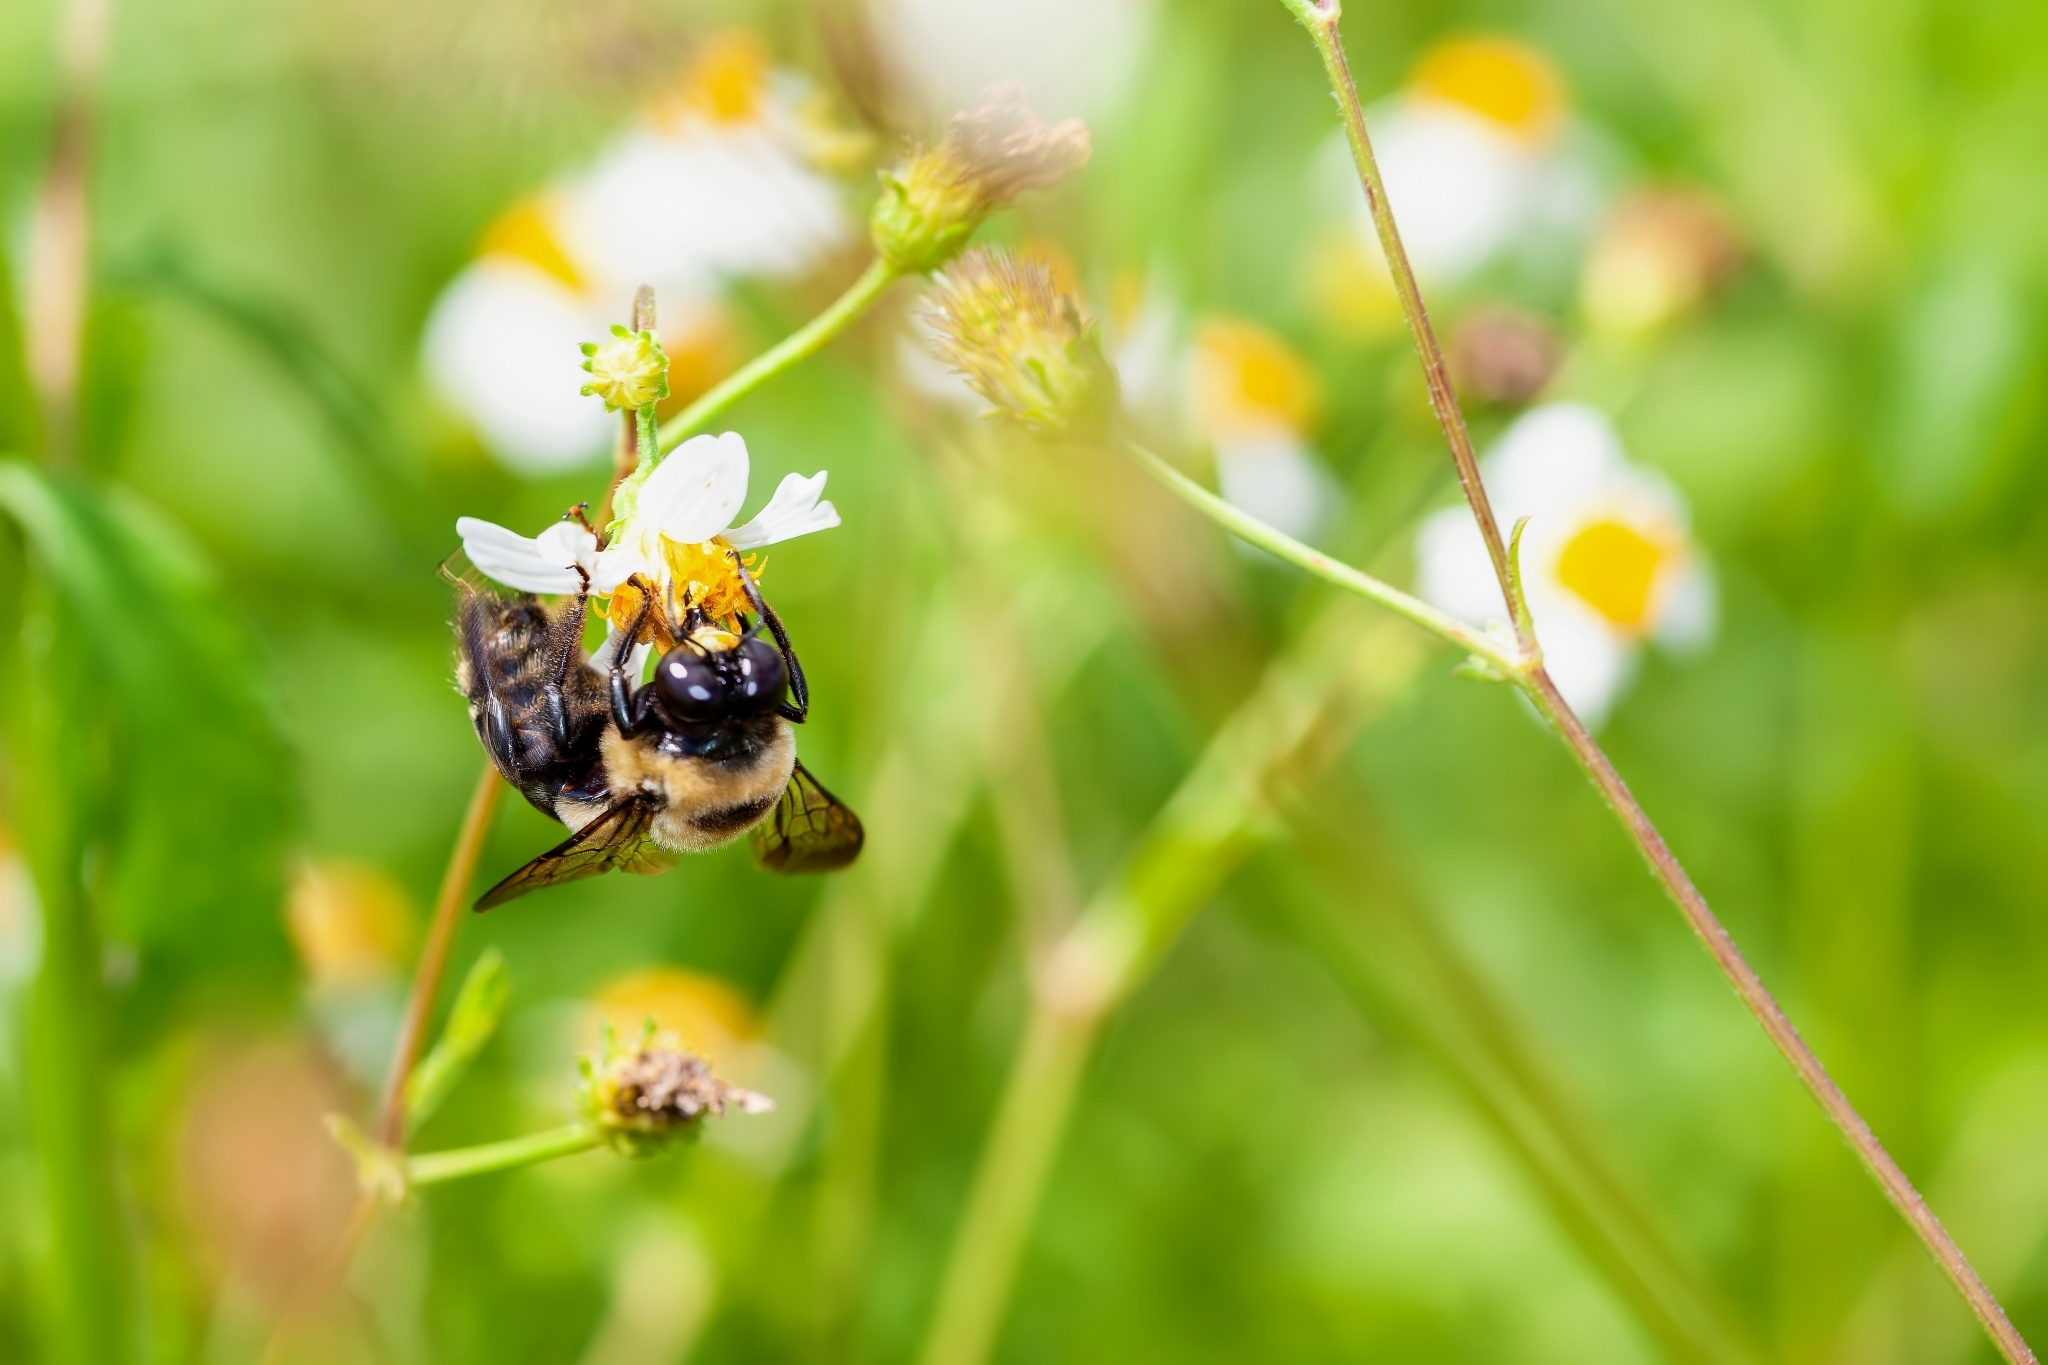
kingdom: Animalia
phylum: Arthropoda
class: Insecta
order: Hymenoptera
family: Apidae
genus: Xylocopa
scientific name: Xylocopa virginica
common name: Carpenter bee
